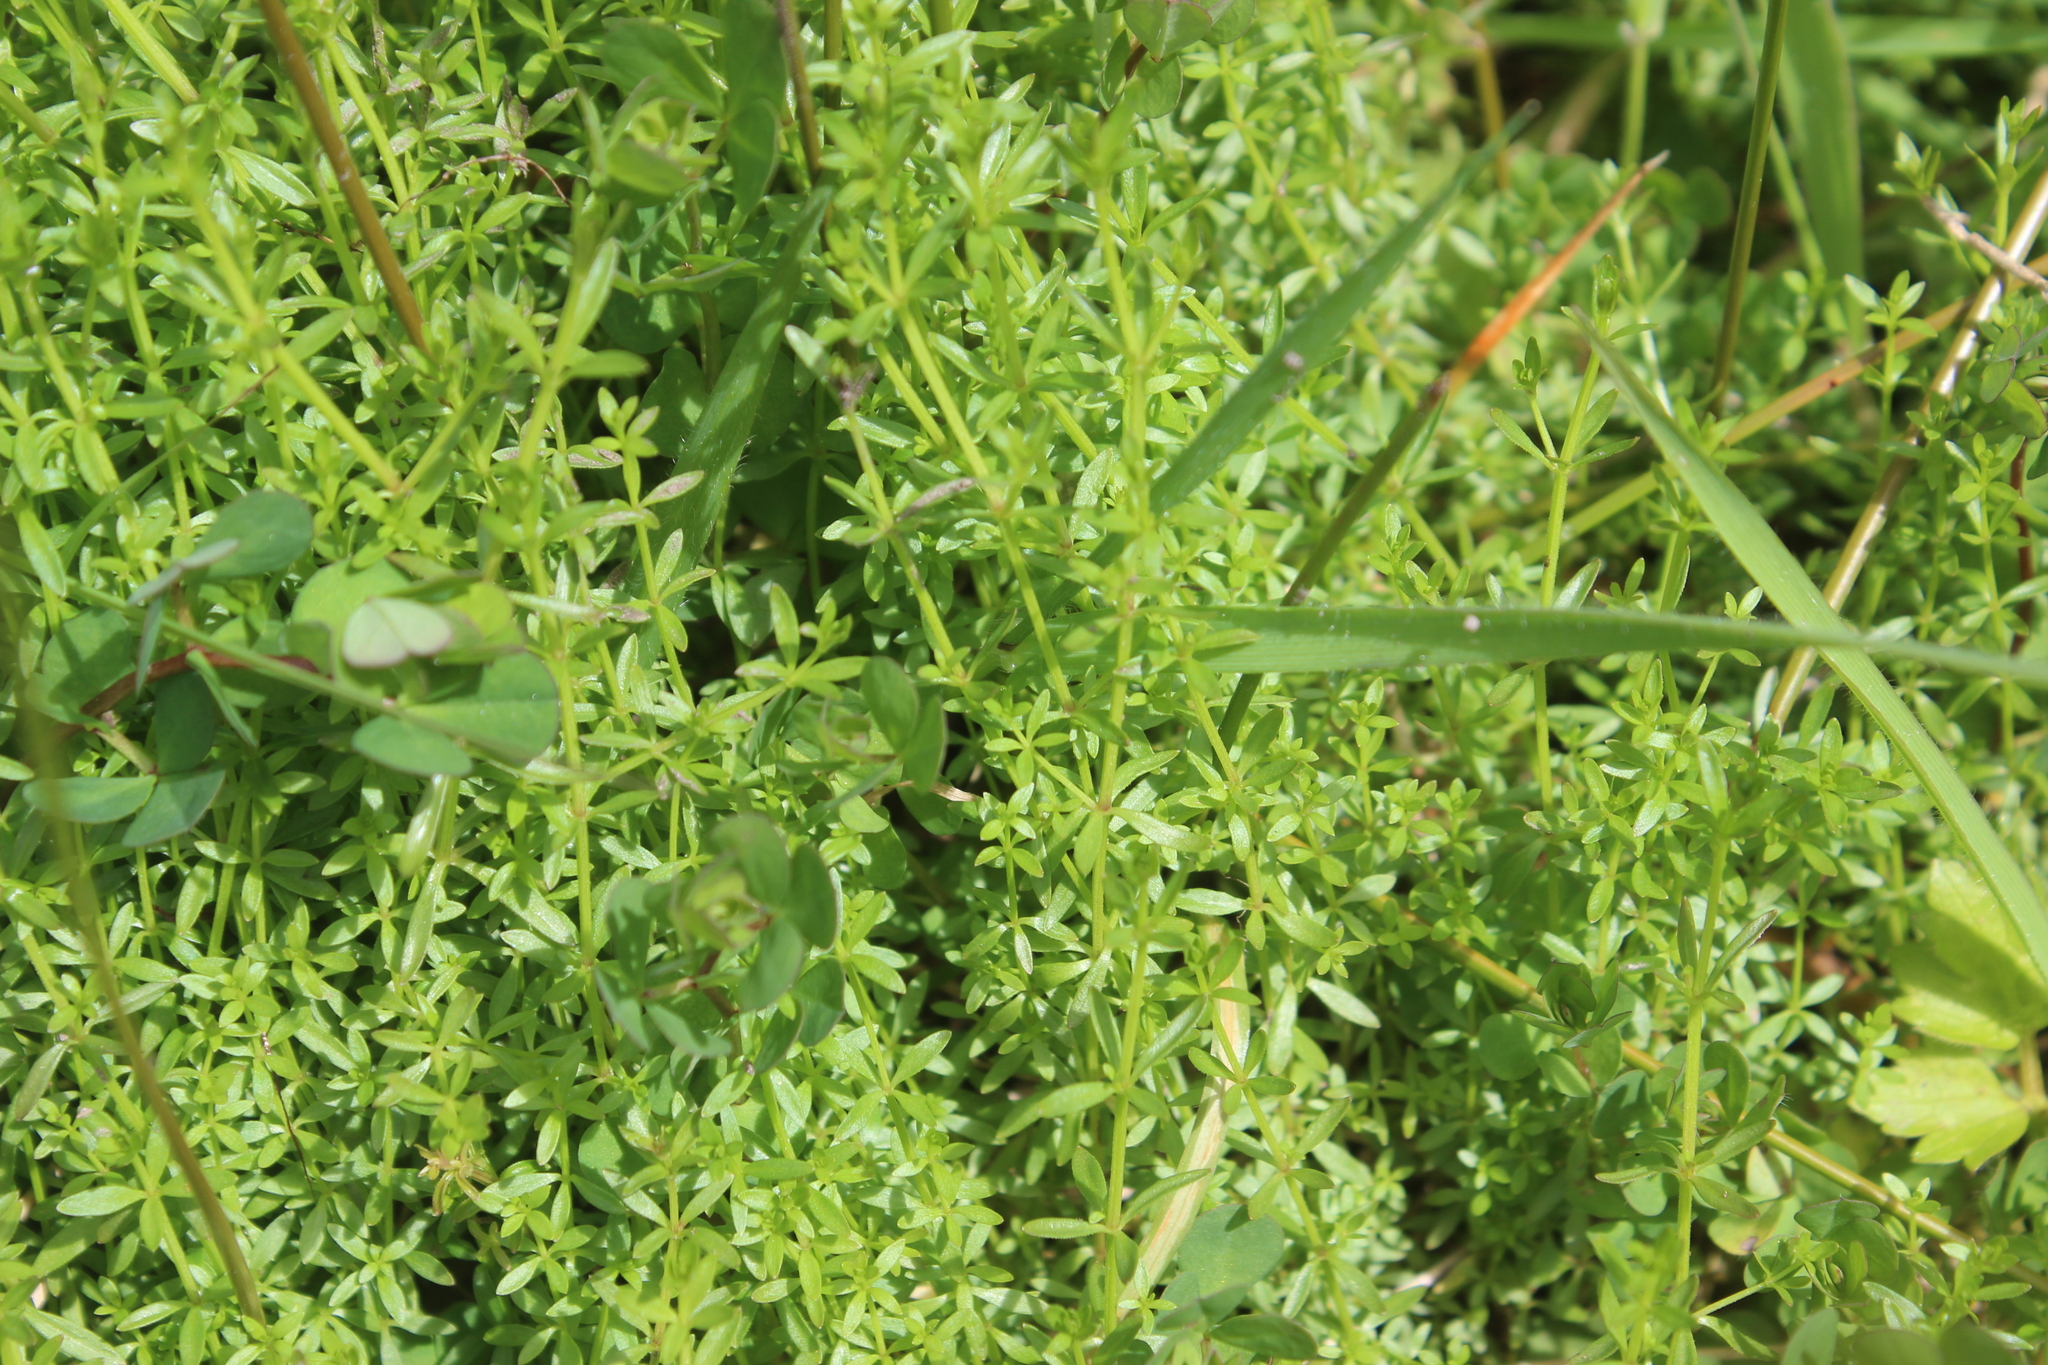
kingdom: Plantae
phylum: Tracheophyta
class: Magnoliopsida
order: Gentianales
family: Rubiaceae
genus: Galium
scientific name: Galium palustre
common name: Common marsh-bedstraw
